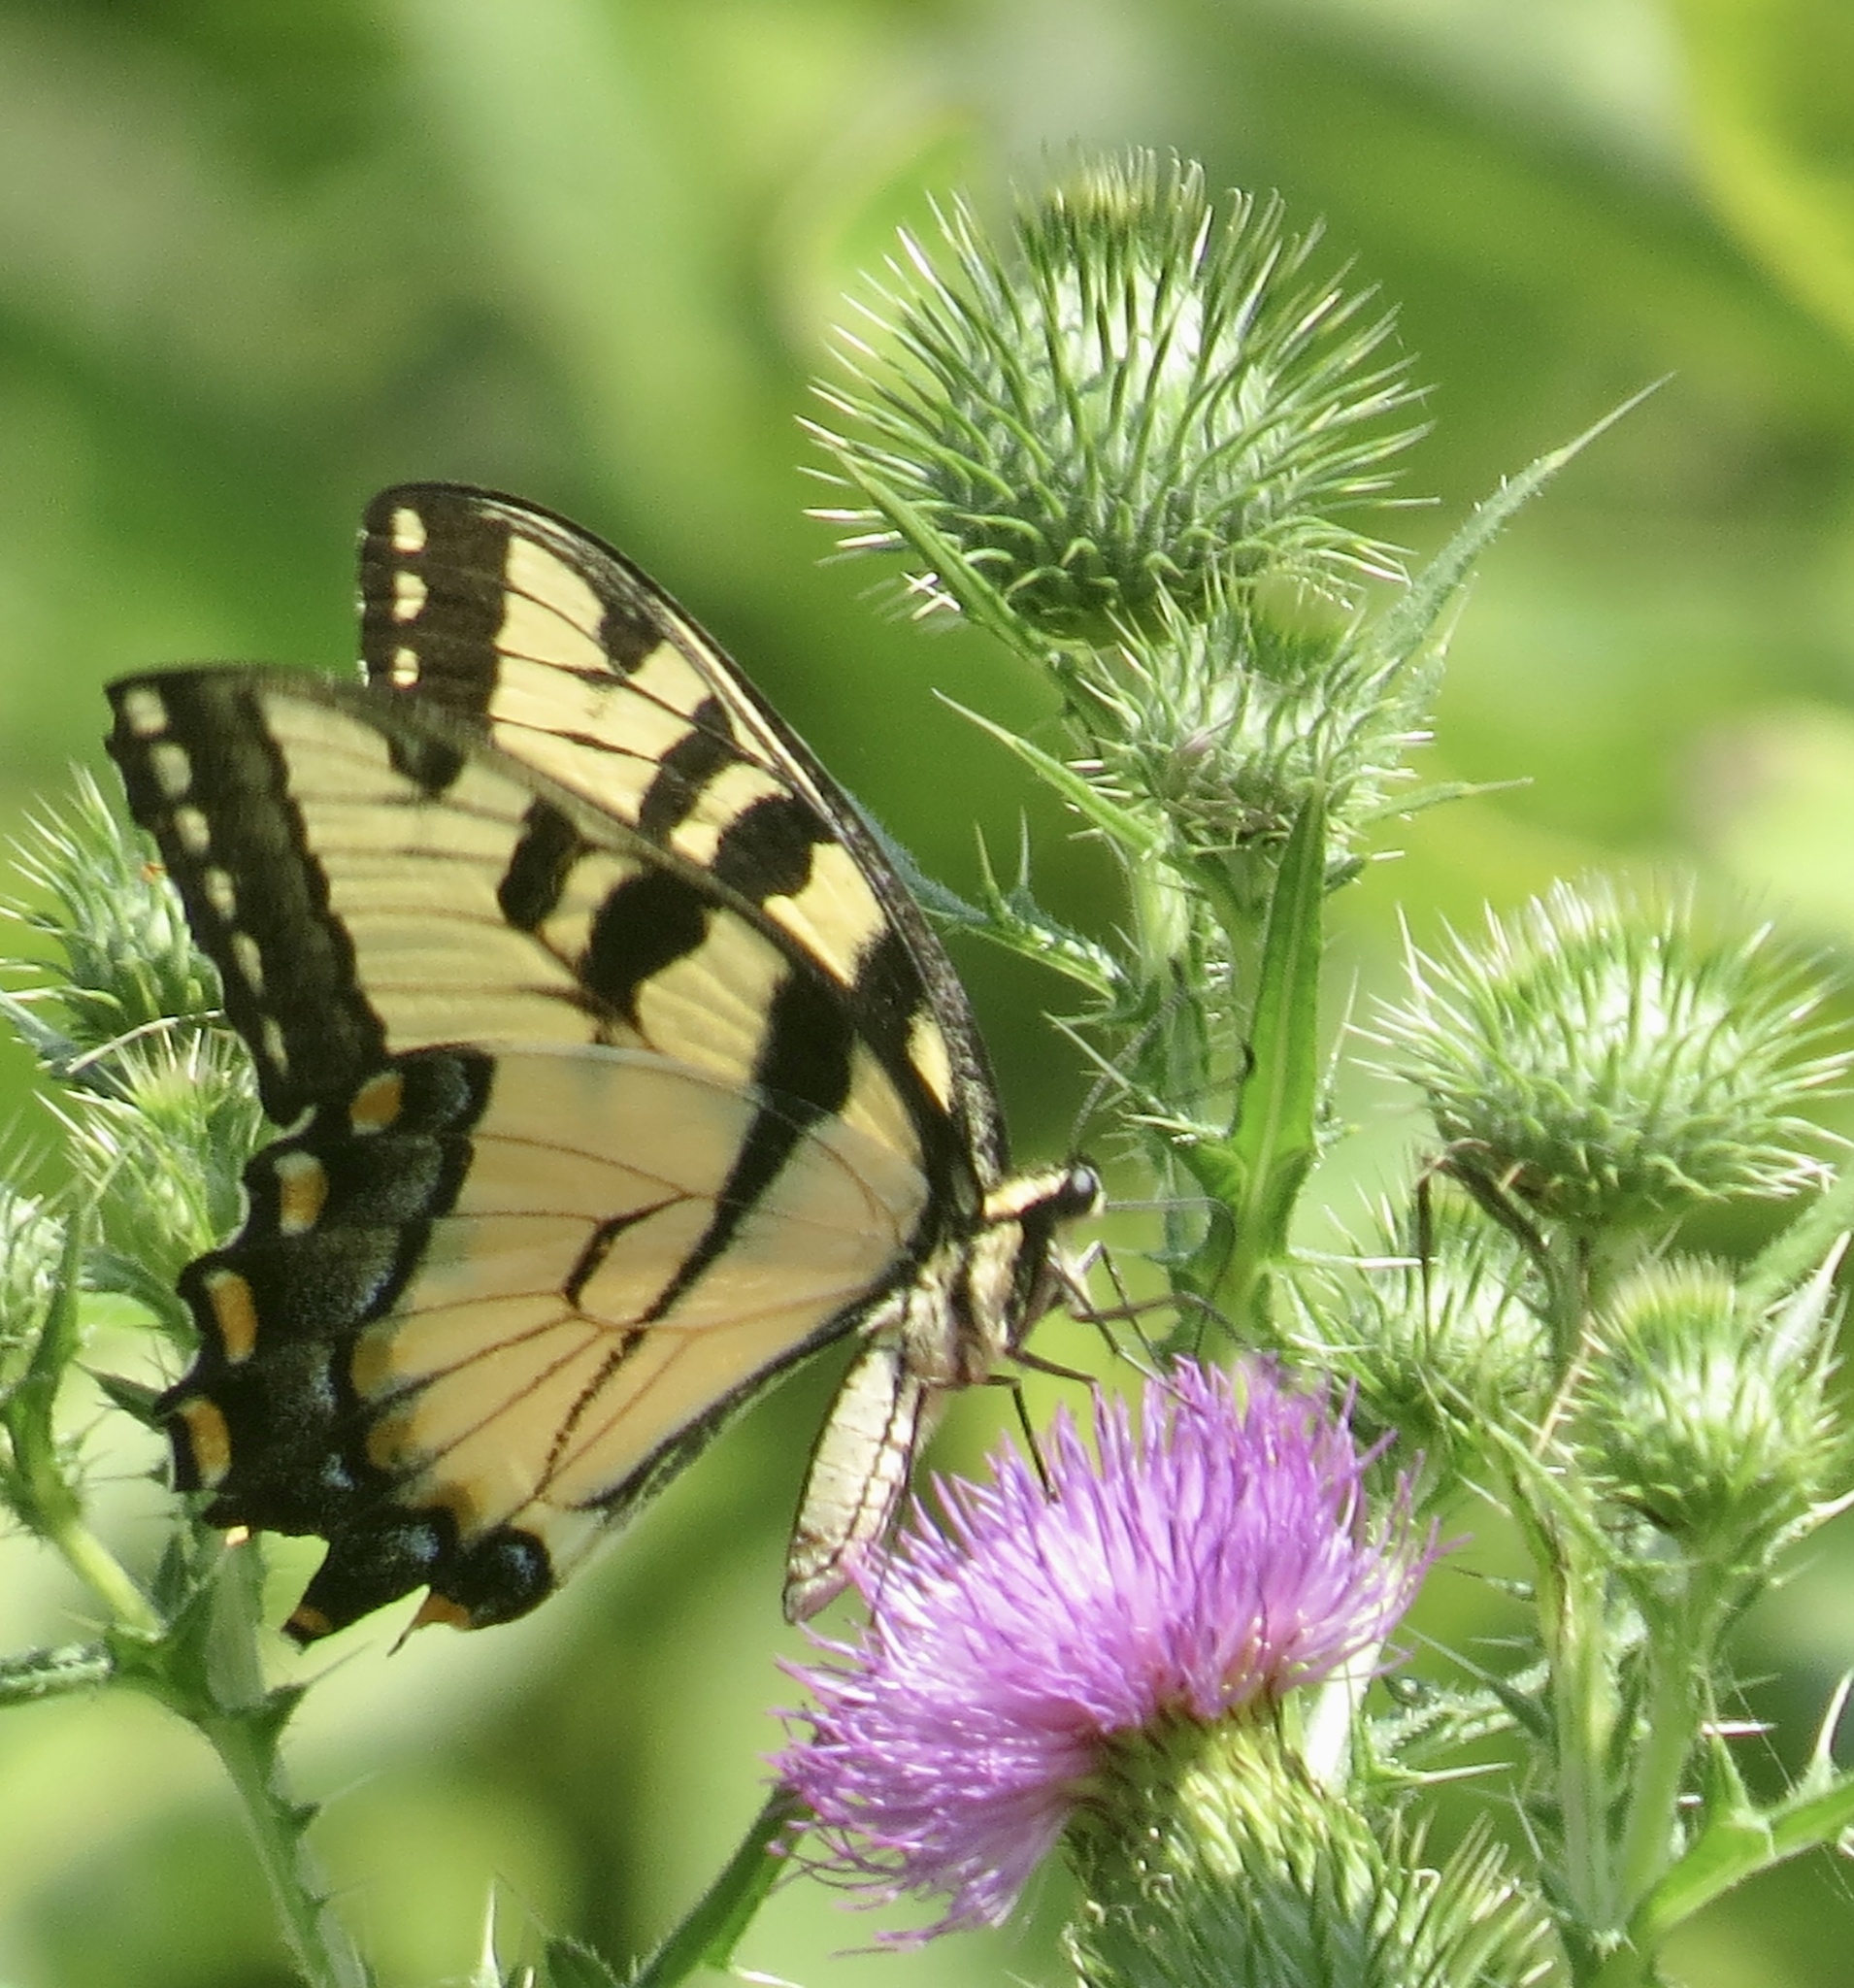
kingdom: Animalia
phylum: Arthropoda
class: Insecta
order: Lepidoptera
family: Papilionidae
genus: Papilio
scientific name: Papilio glaucus
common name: Tiger swallowtail
